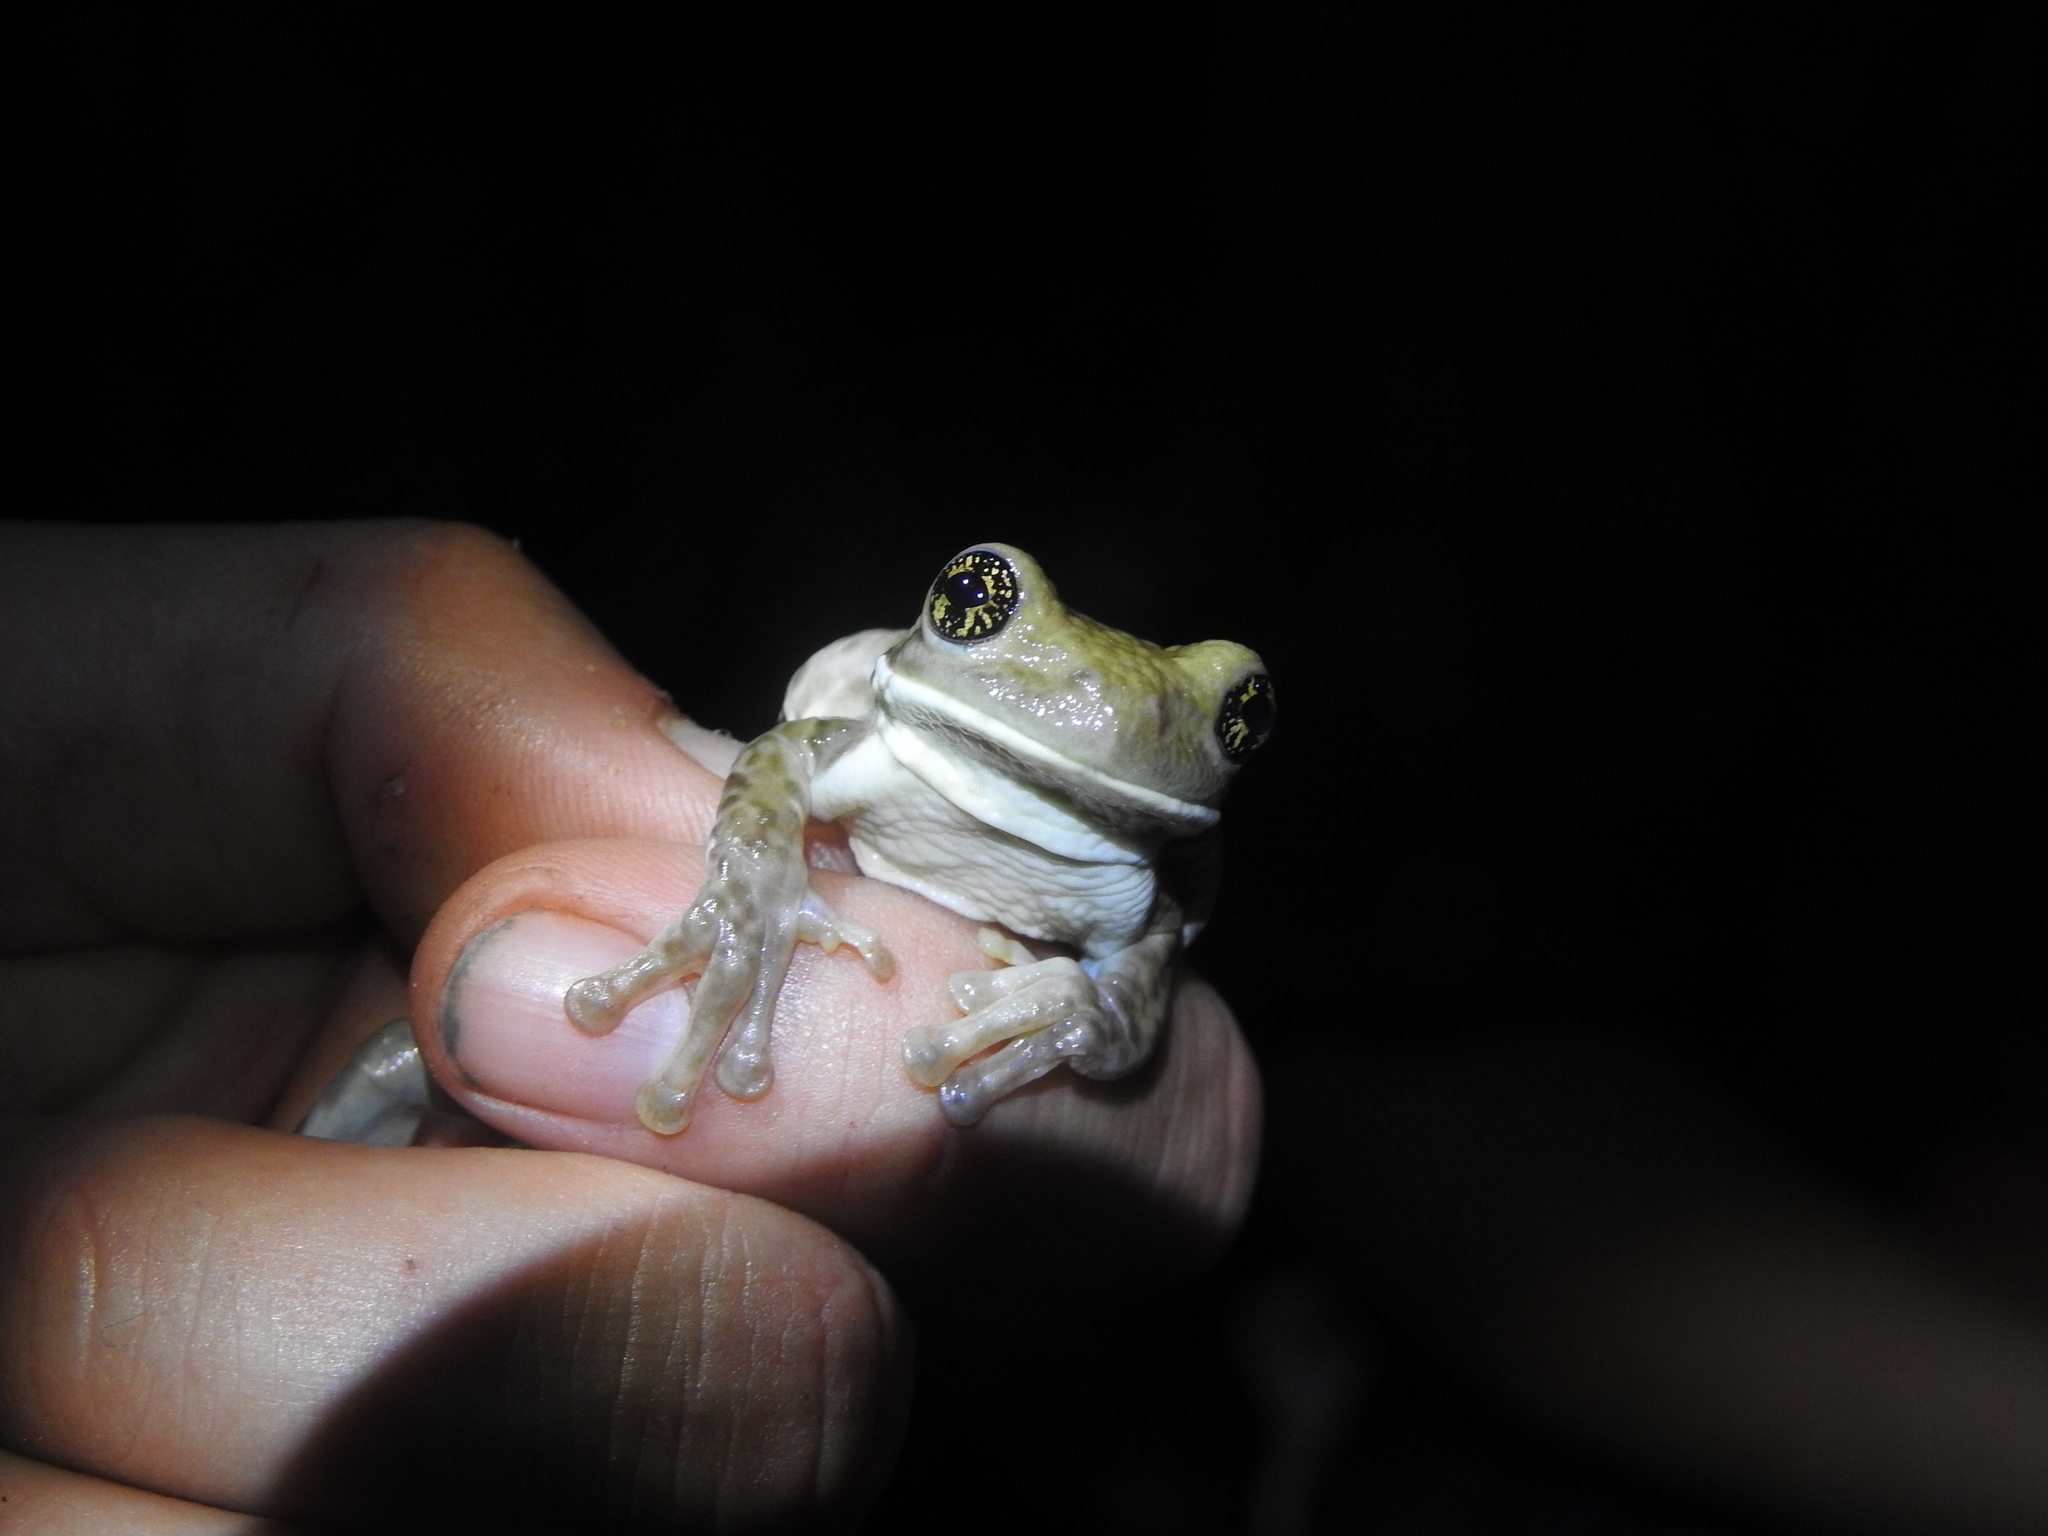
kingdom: Animalia
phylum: Chordata
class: Amphibia
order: Anura
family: Hylidae
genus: Trachycephalus
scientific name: Trachycephalus vermiculatus
